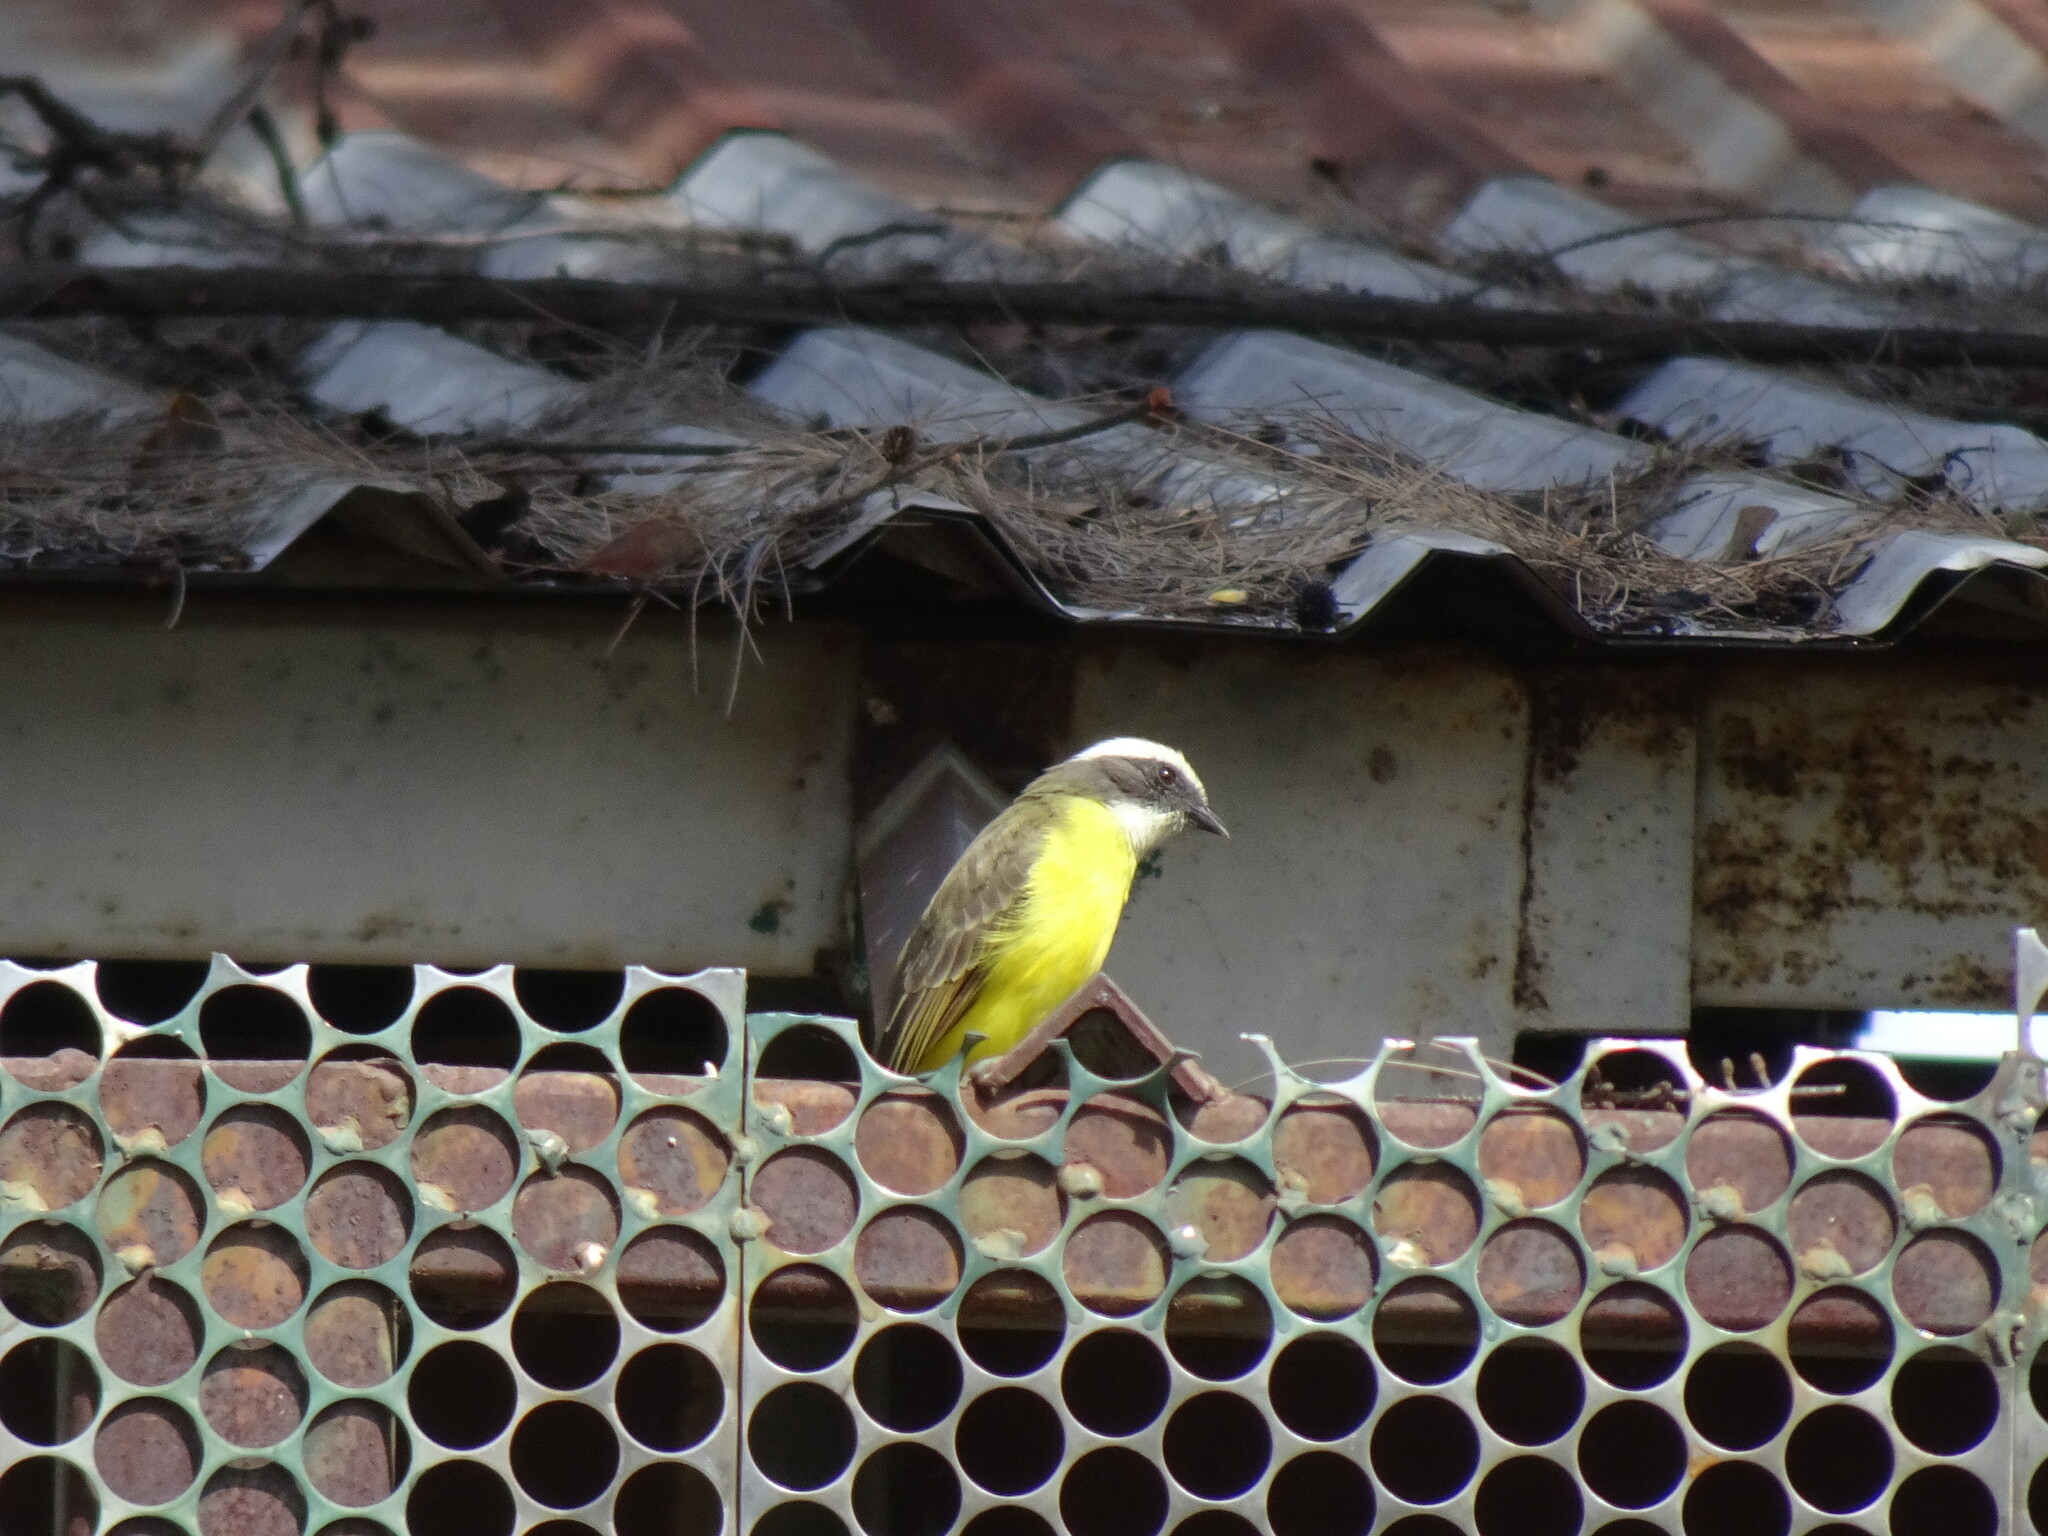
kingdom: Animalia
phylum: Chordata
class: Aves
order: Passeriformes
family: Tyrannidae
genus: Myiozetetes
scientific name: Myiozetetes similis
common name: Social flycatcher
